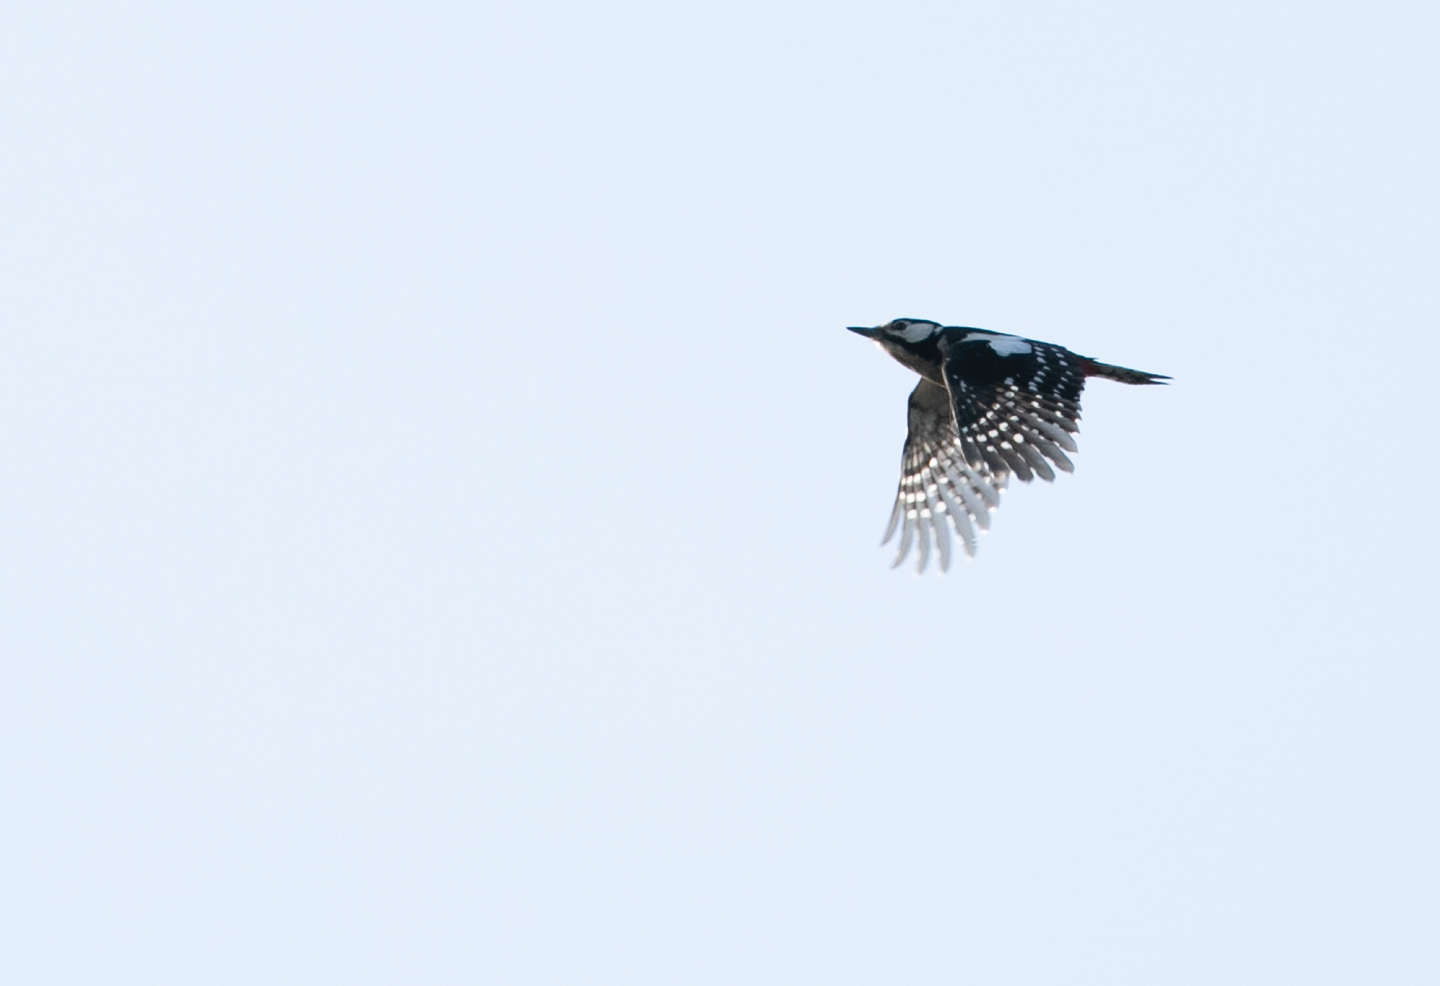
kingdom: Animalia
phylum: Chordata
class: Aves
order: Piciformes
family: Picidae
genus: Dendrocopos
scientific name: Dendrocopos major
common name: Great spotted woodpecker
